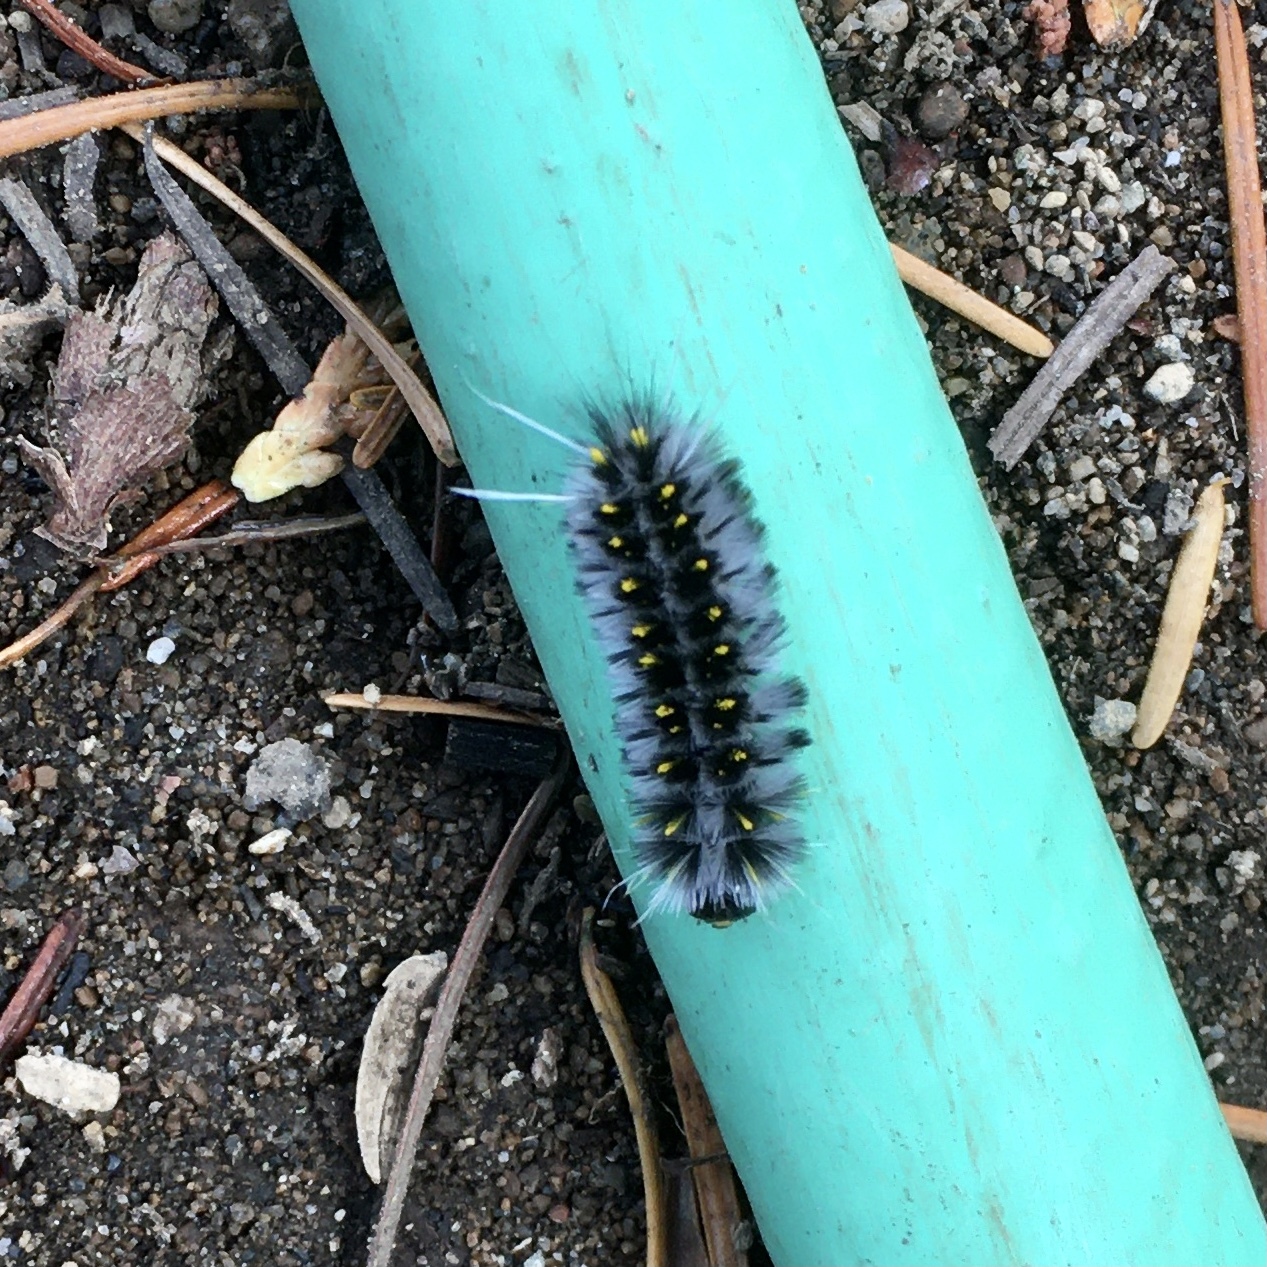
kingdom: Animalia
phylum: Arthropoda
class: Insecta
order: Lepidoptera
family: Erebidae
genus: Lophocampa
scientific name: Lophocampa roseata
